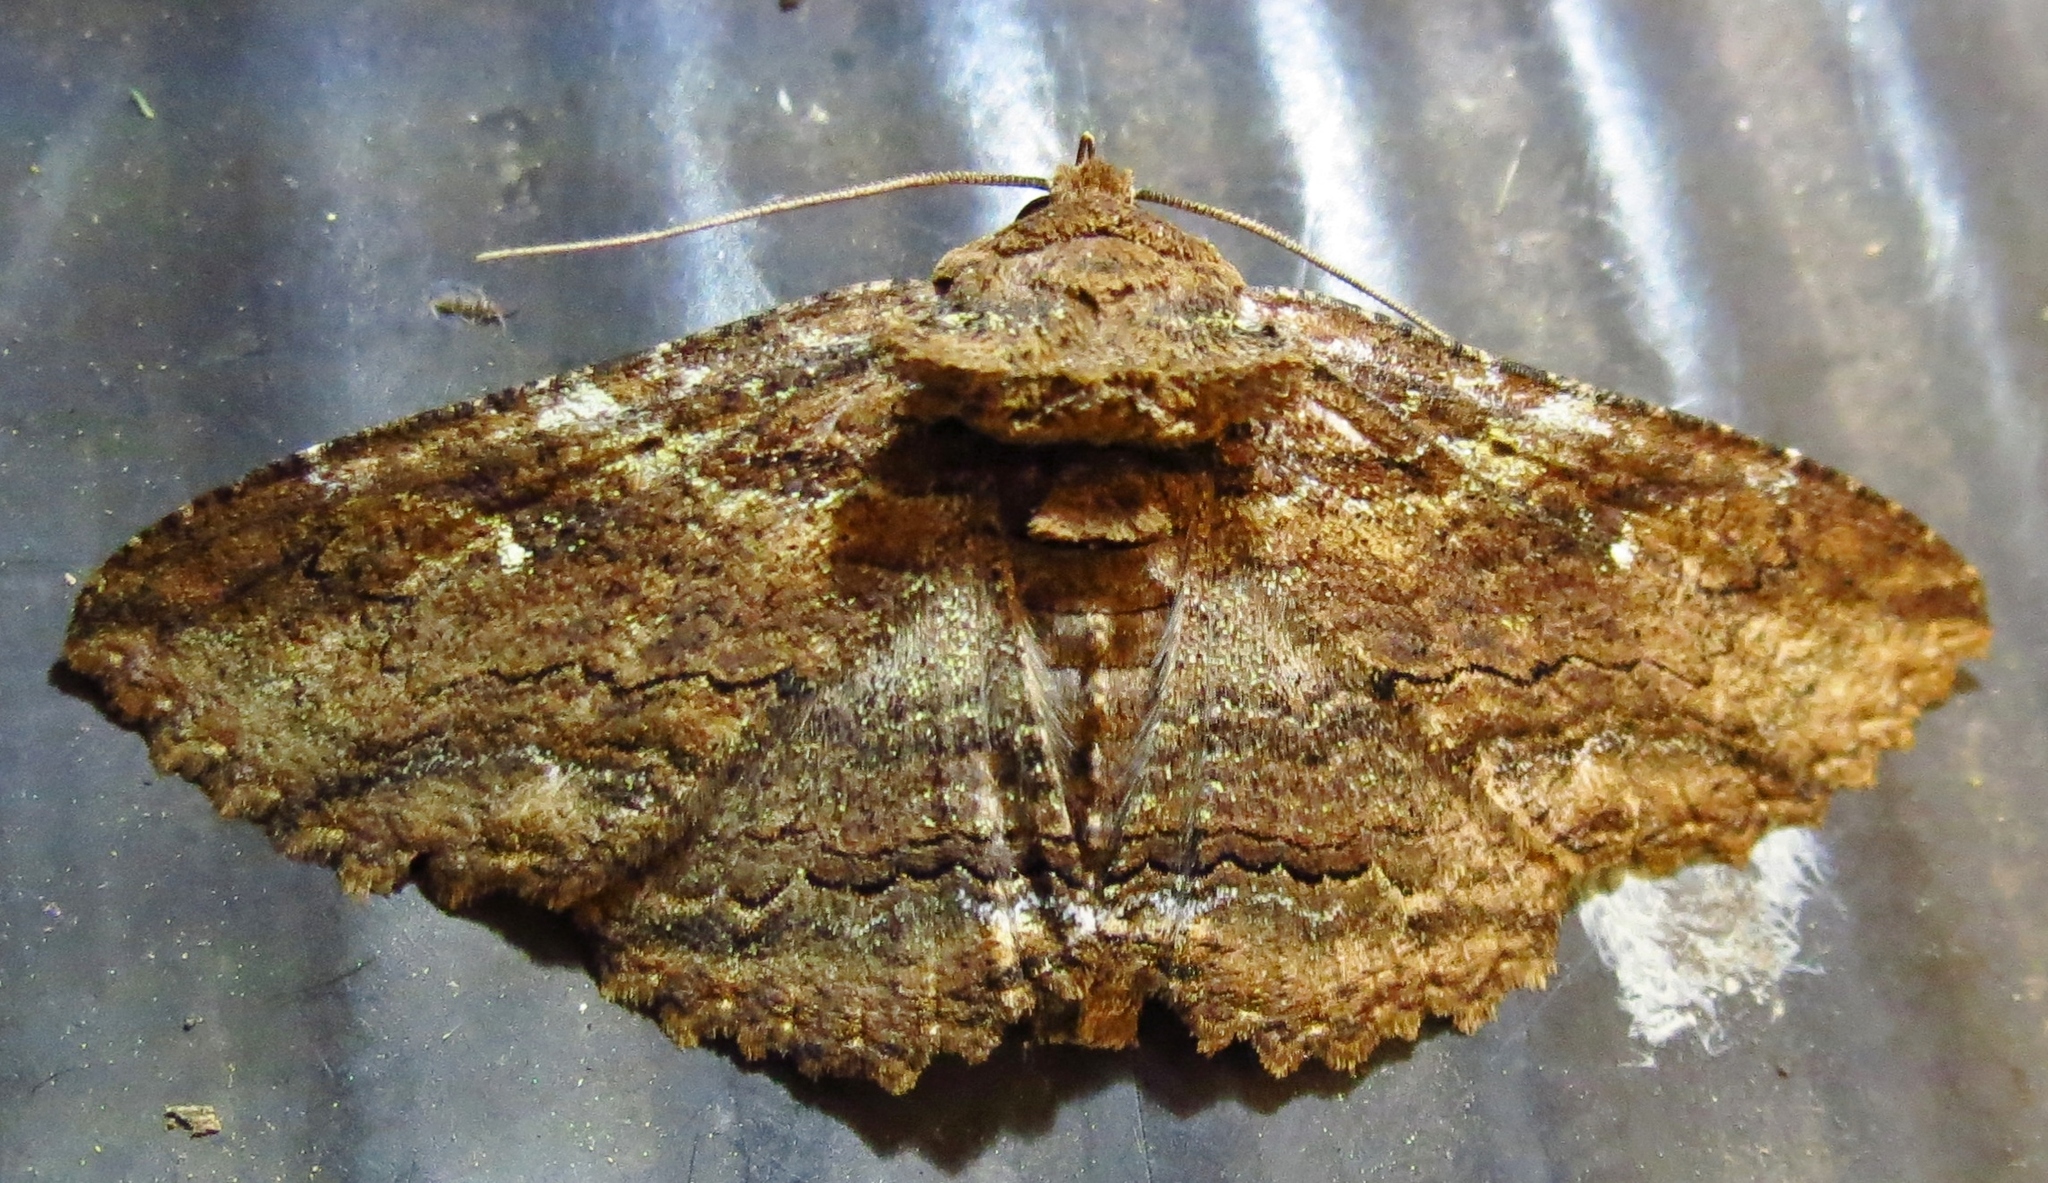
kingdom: Animalia
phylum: Arthropoda
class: Insecta
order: Lepidoptera
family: Erebidae
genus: Zale
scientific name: Zale lunata
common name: Lunate zale moth
